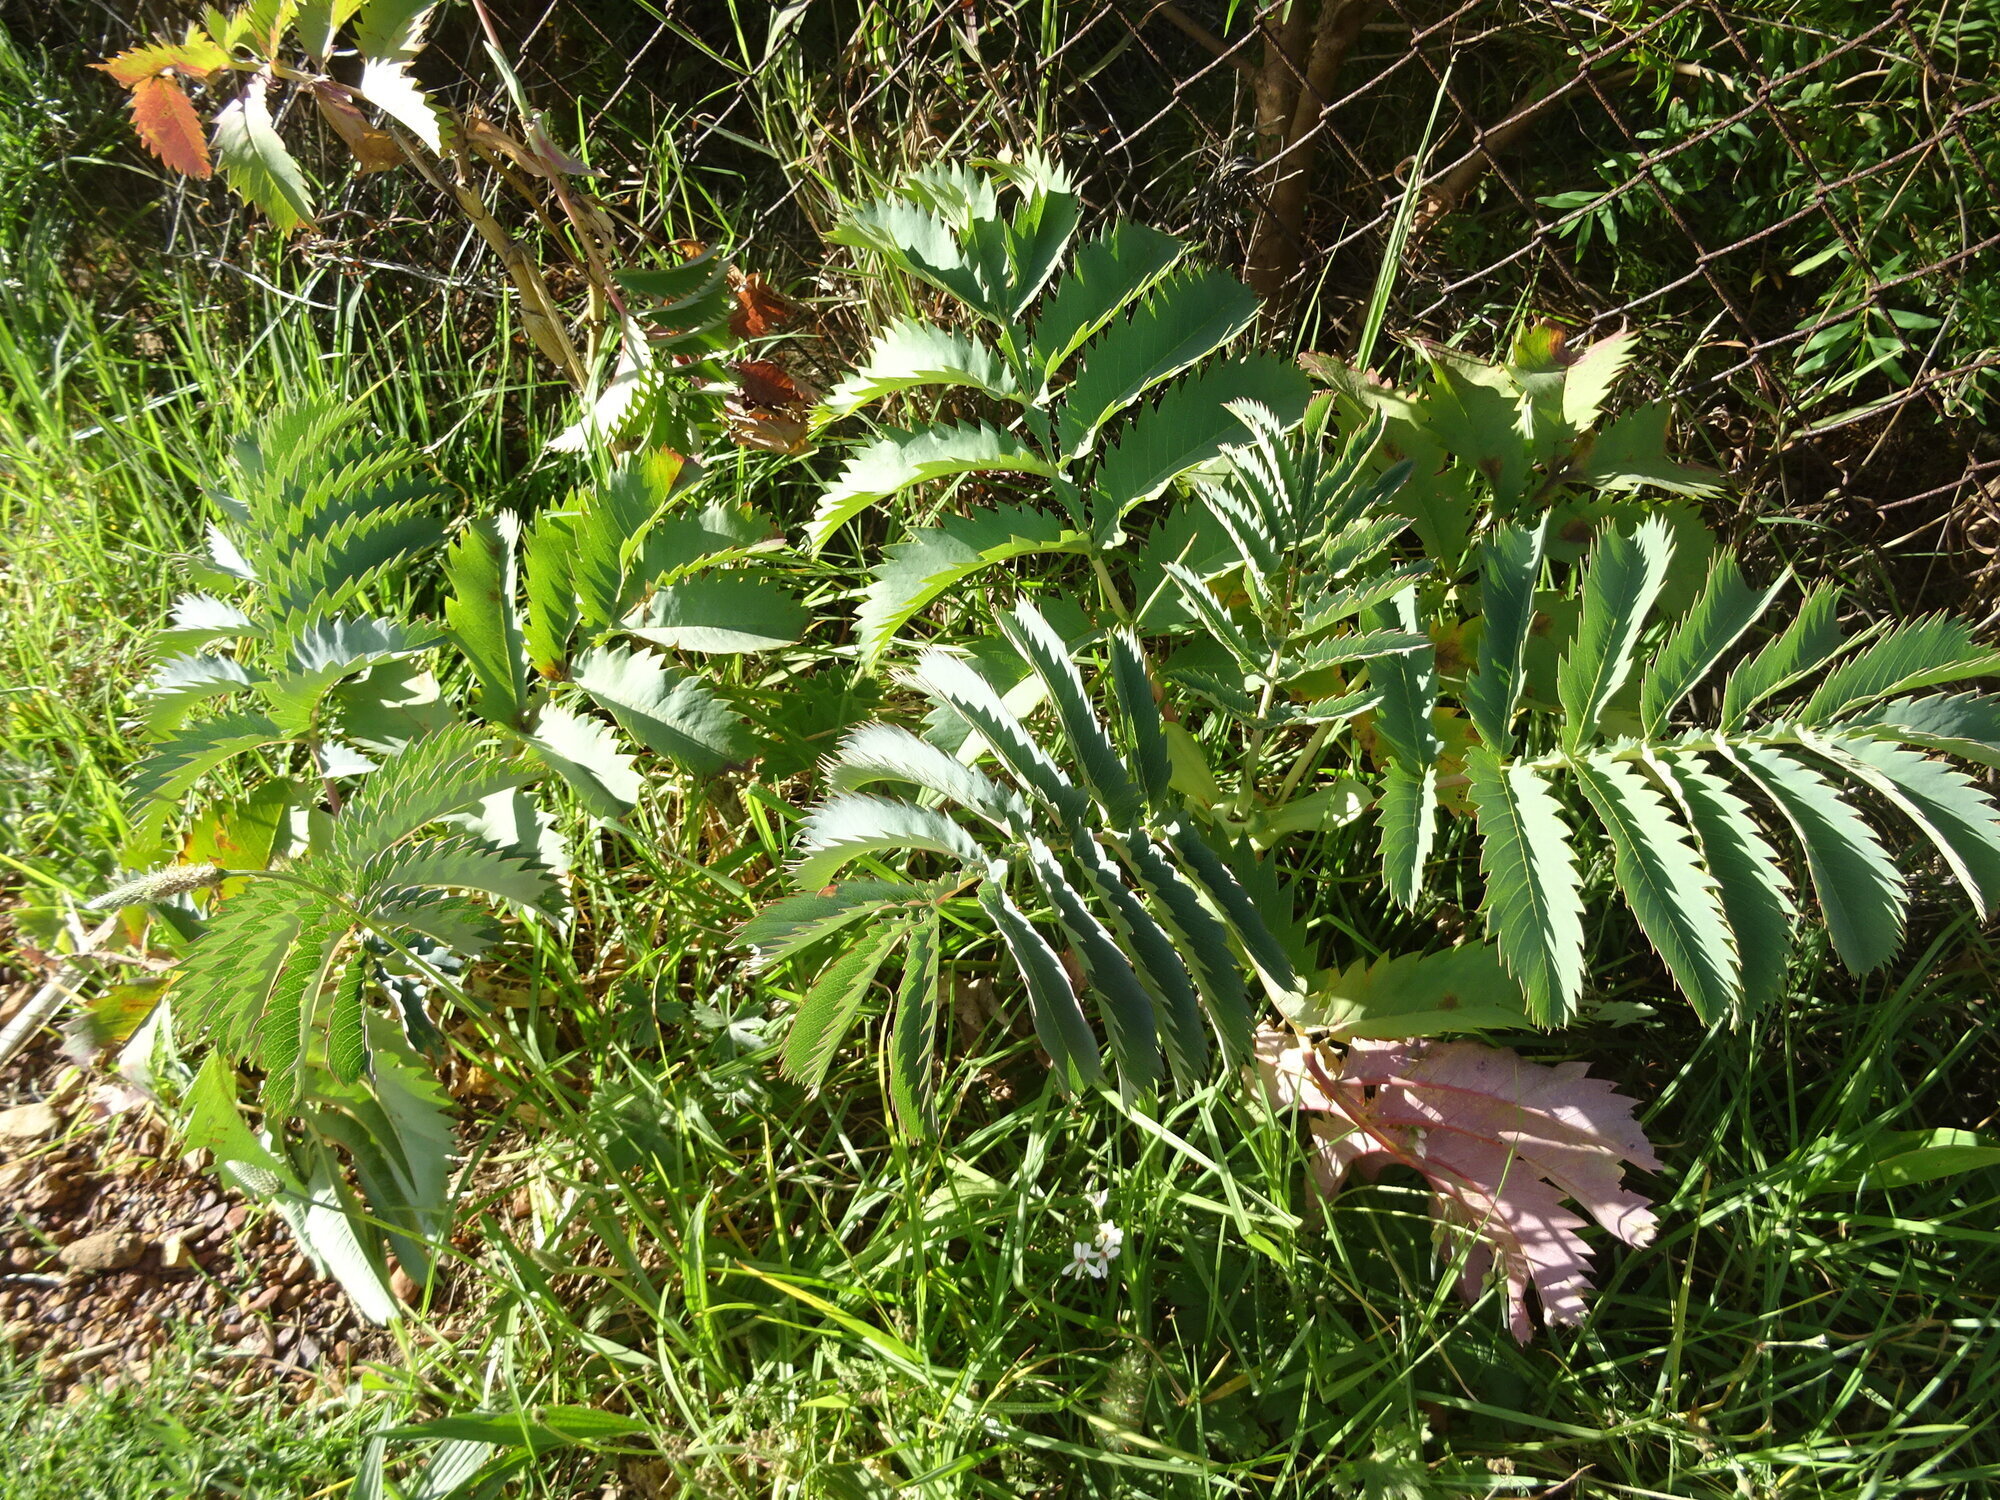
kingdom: Plantae
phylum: Tracheophyta
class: Magnoliopsida
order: Geraniales
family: Melianthaceae
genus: Melianthus
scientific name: Melianthus major
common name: Honey-flower
